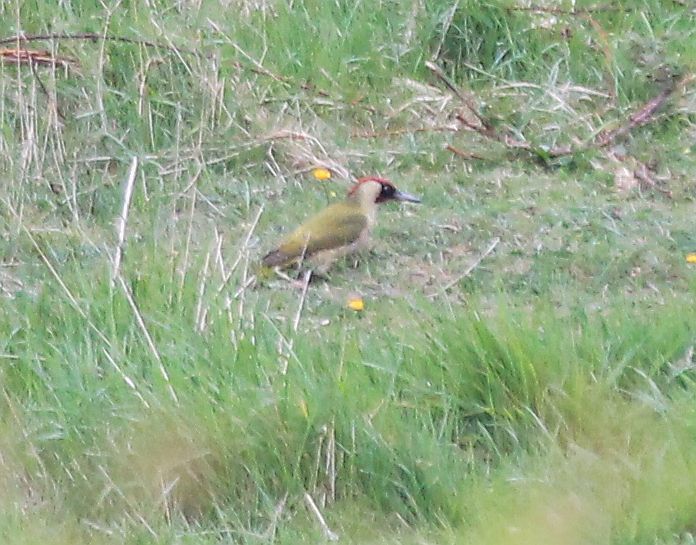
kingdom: Animalia
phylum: Chordata
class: Aves
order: Piciformes
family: Picidae
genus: Picus
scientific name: Picus viridis
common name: European green woodpecker
